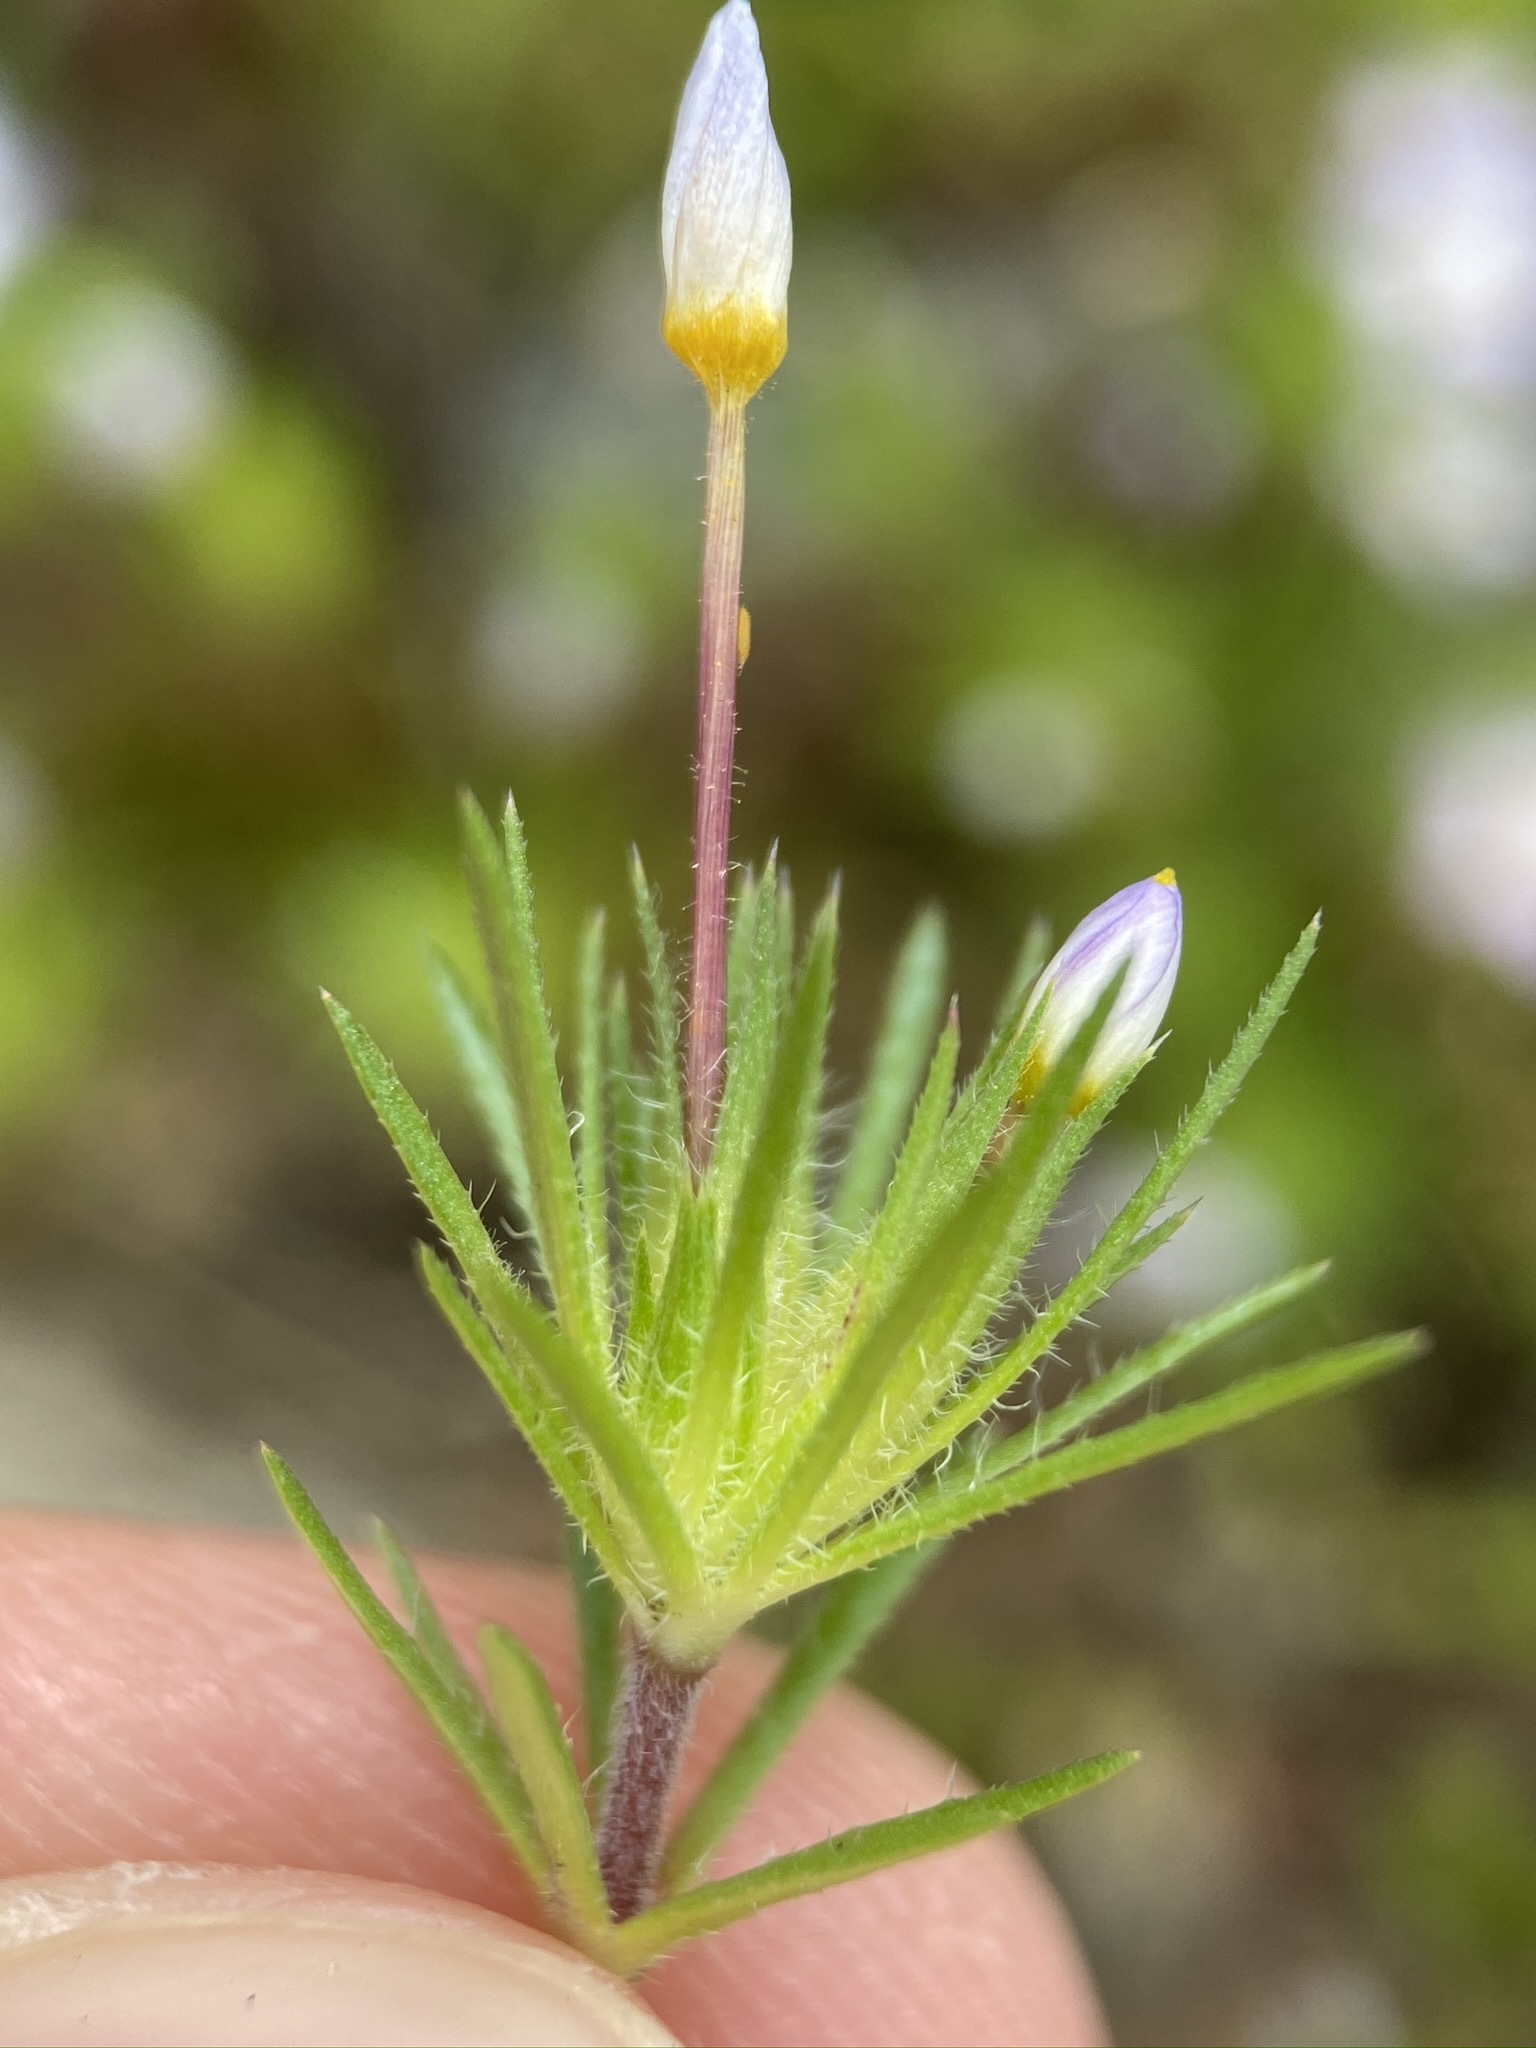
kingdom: Plantae
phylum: Tracheophyta
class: Magnoliopsida
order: Ericales
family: Polemoniaceae
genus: Leptosiphon
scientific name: Leptosiphon bicolor
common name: True babystars
